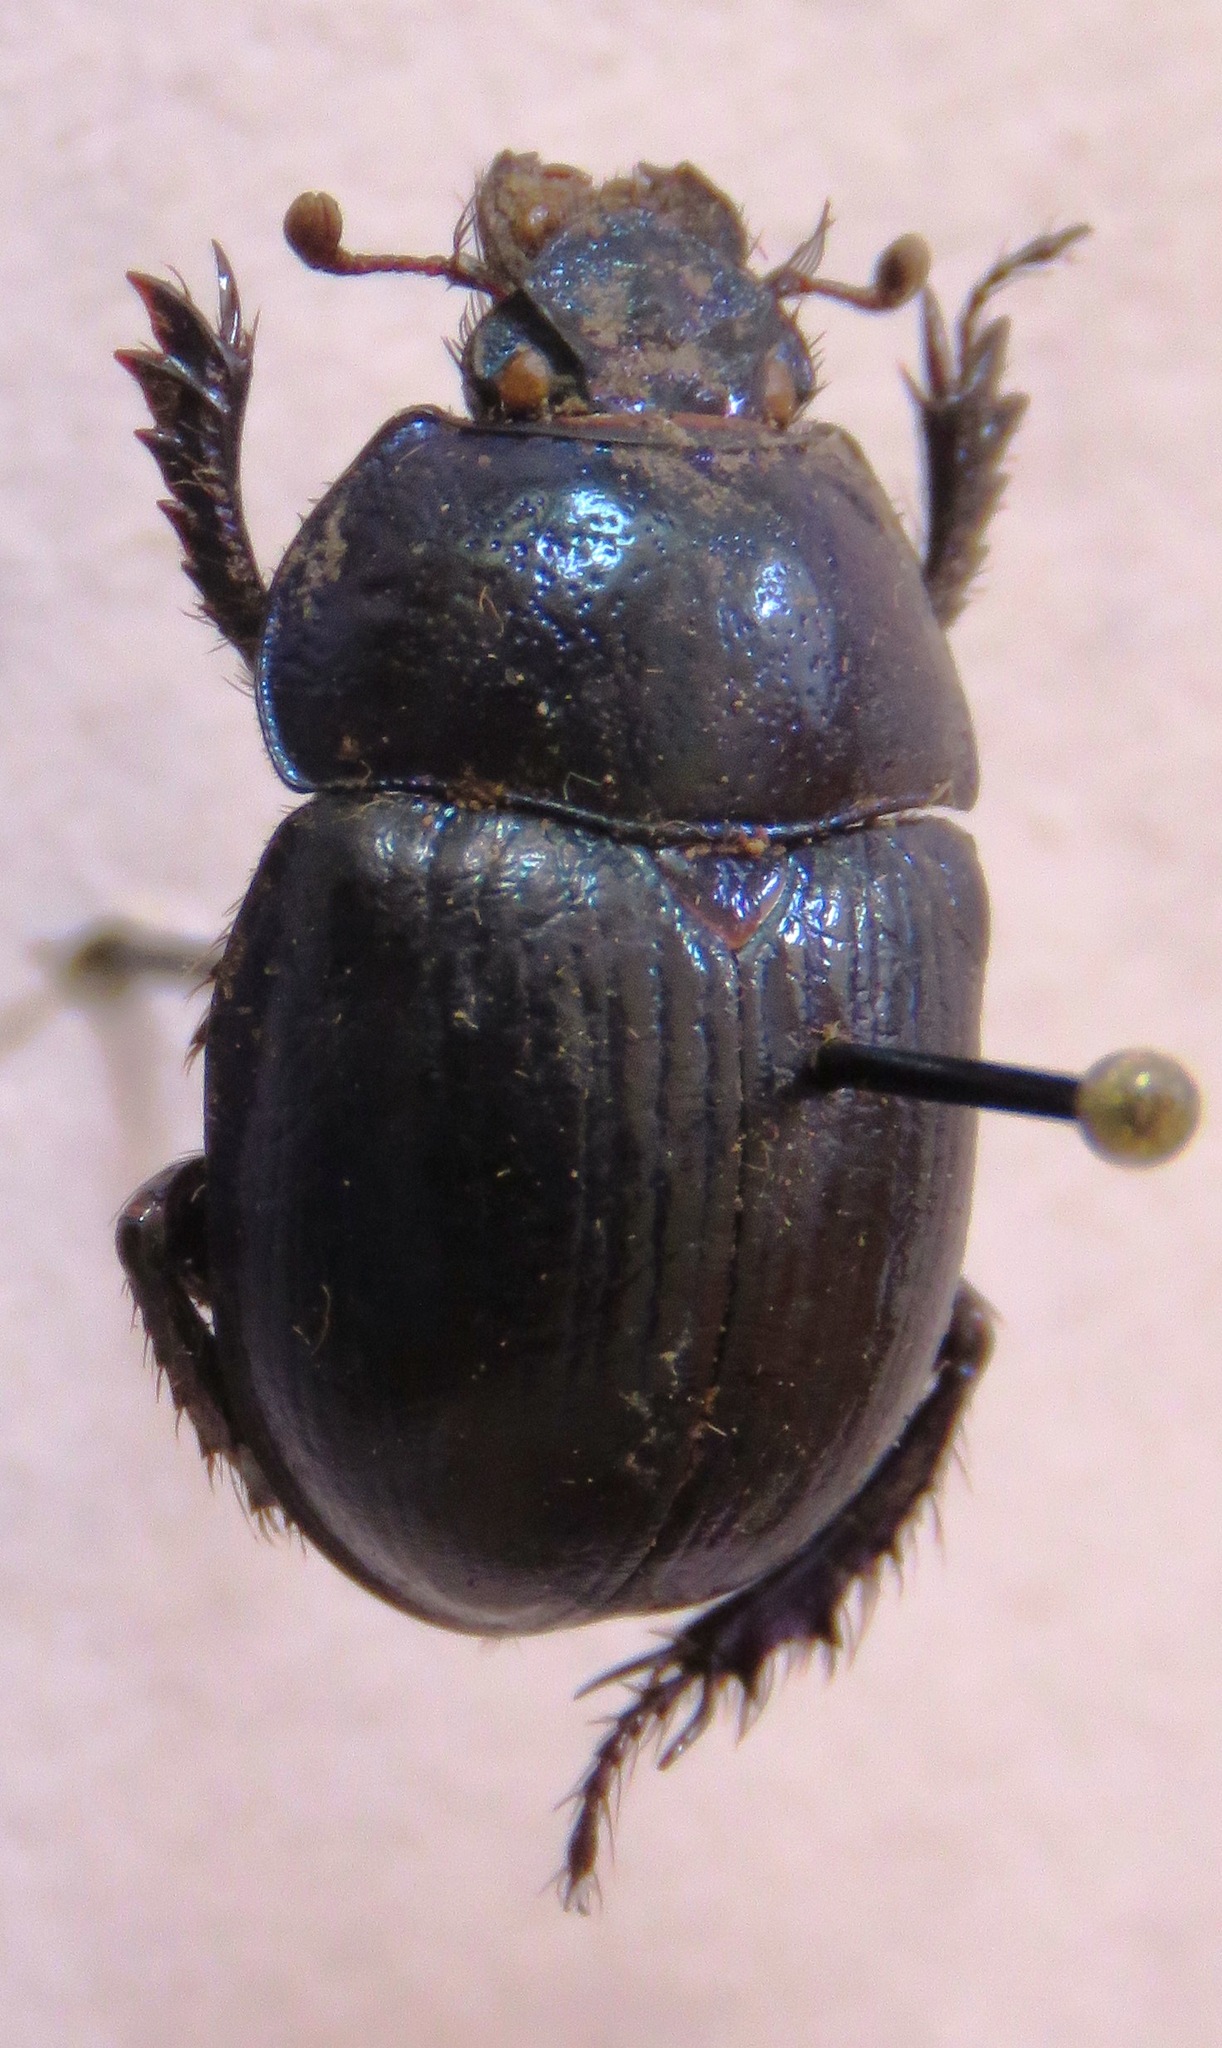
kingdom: Animalia
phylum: Arthropoda
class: Insecta
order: Coleoptera
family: Geotrupidae
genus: Anoplotrupes
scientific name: Anoplotrupes stercorosus
